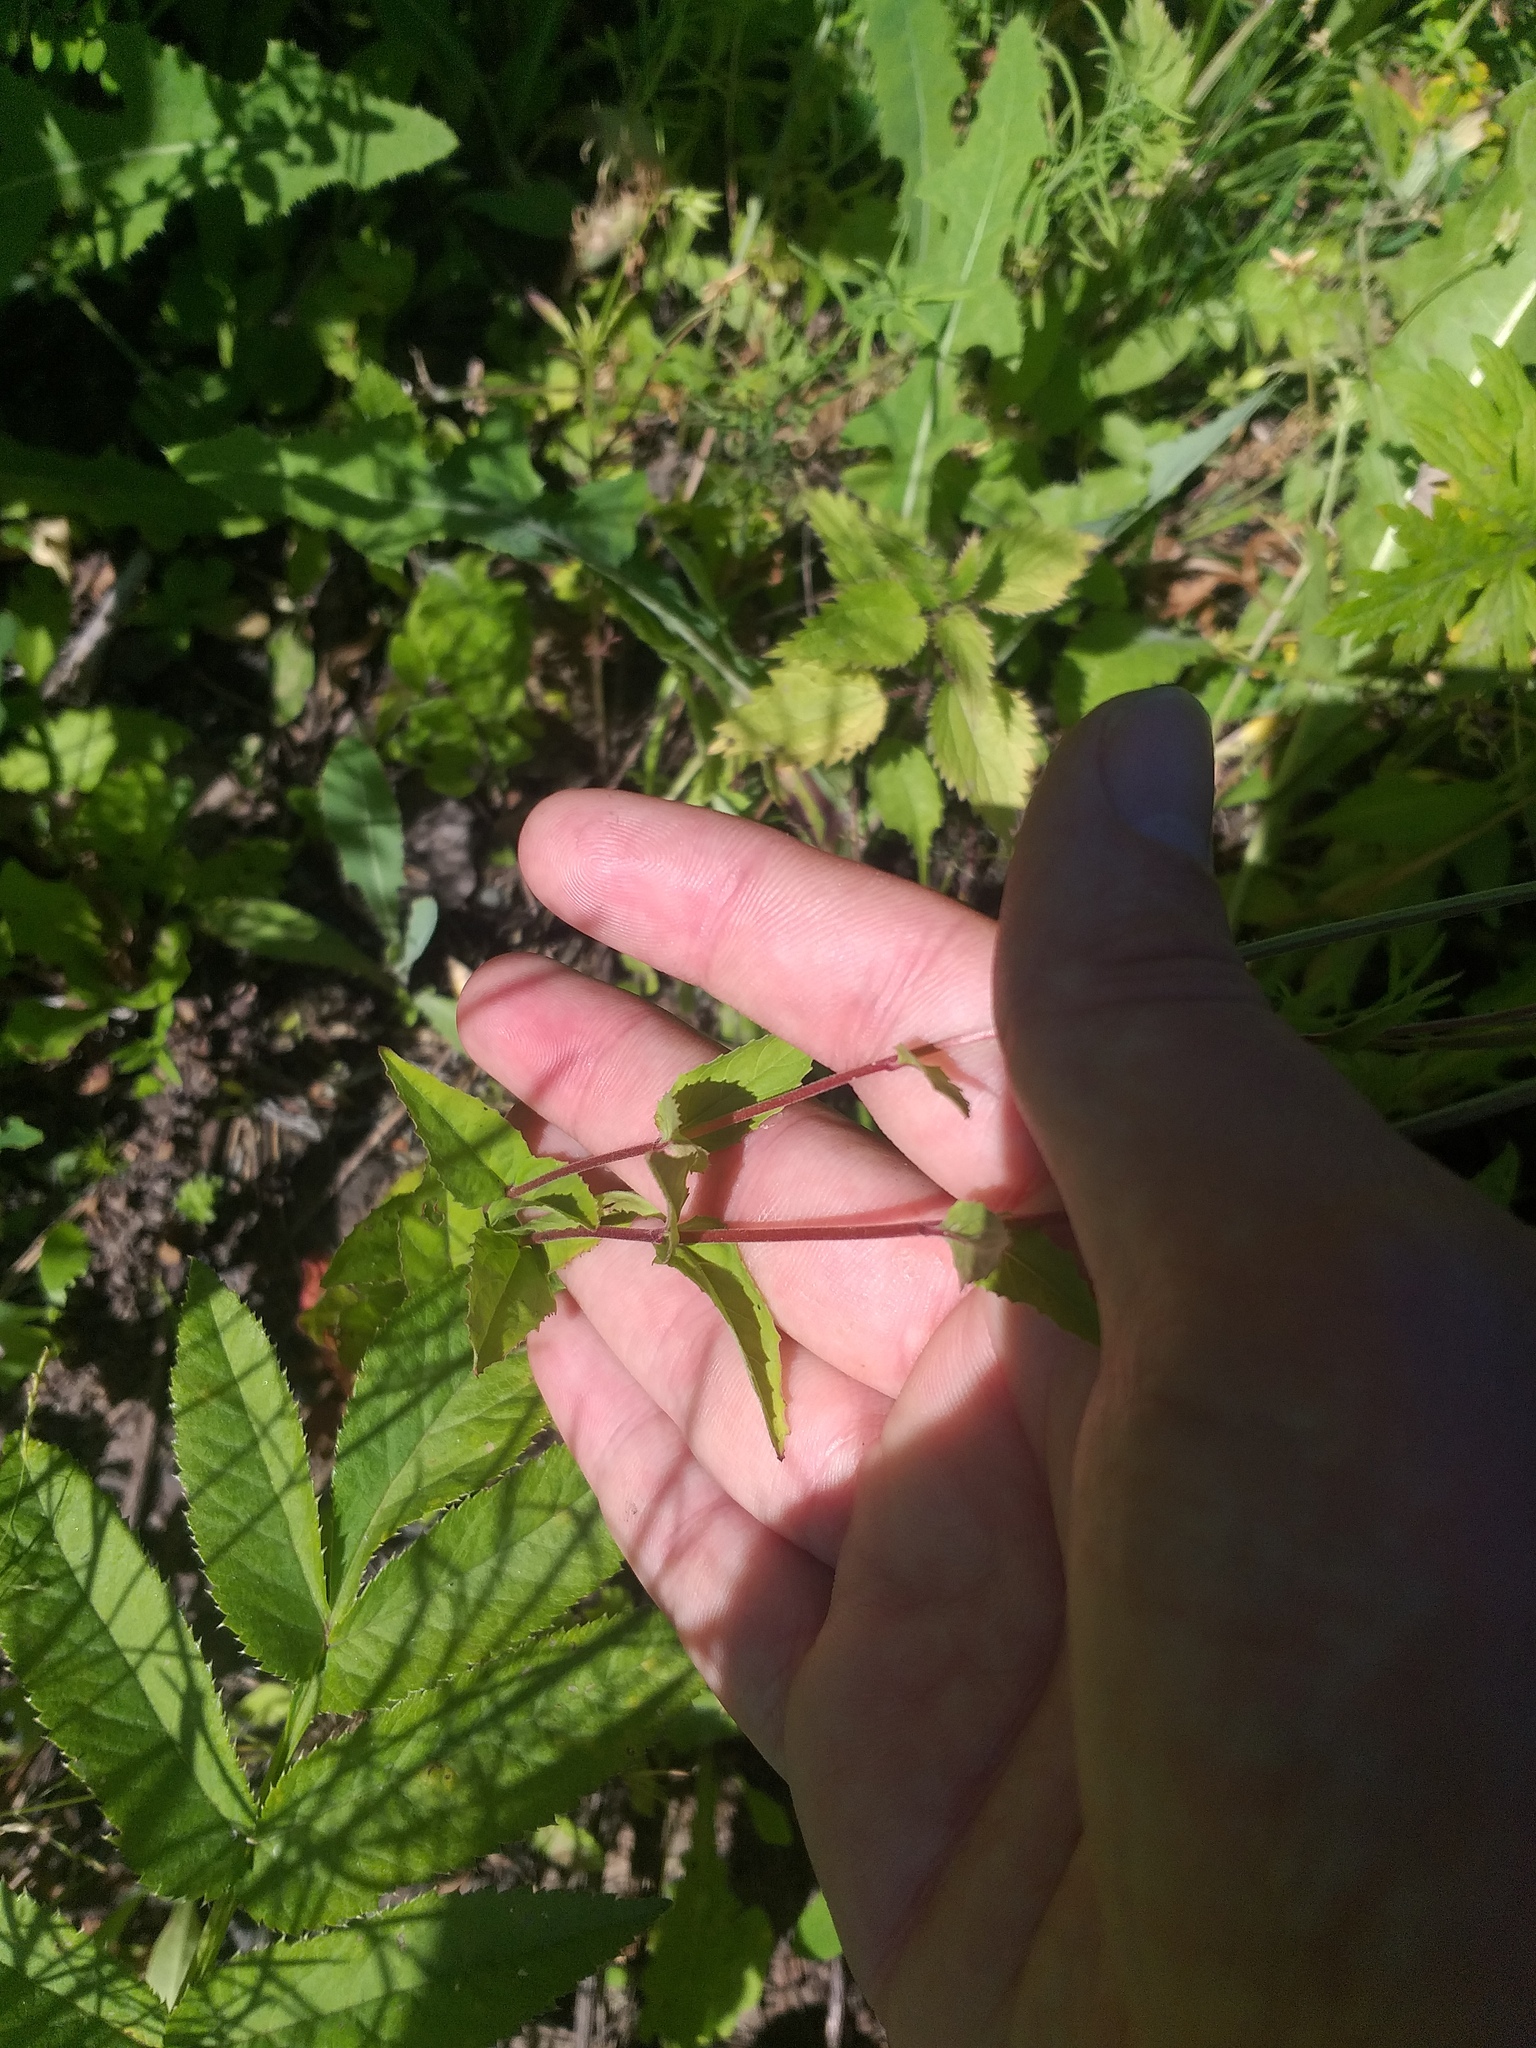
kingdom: Plantae
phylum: Tracheophyta
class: Magnoliopsida
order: Myrtales
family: Onagraceae
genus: Epilobium
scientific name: Epilobium montanum
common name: Broad-leaved willowherb
